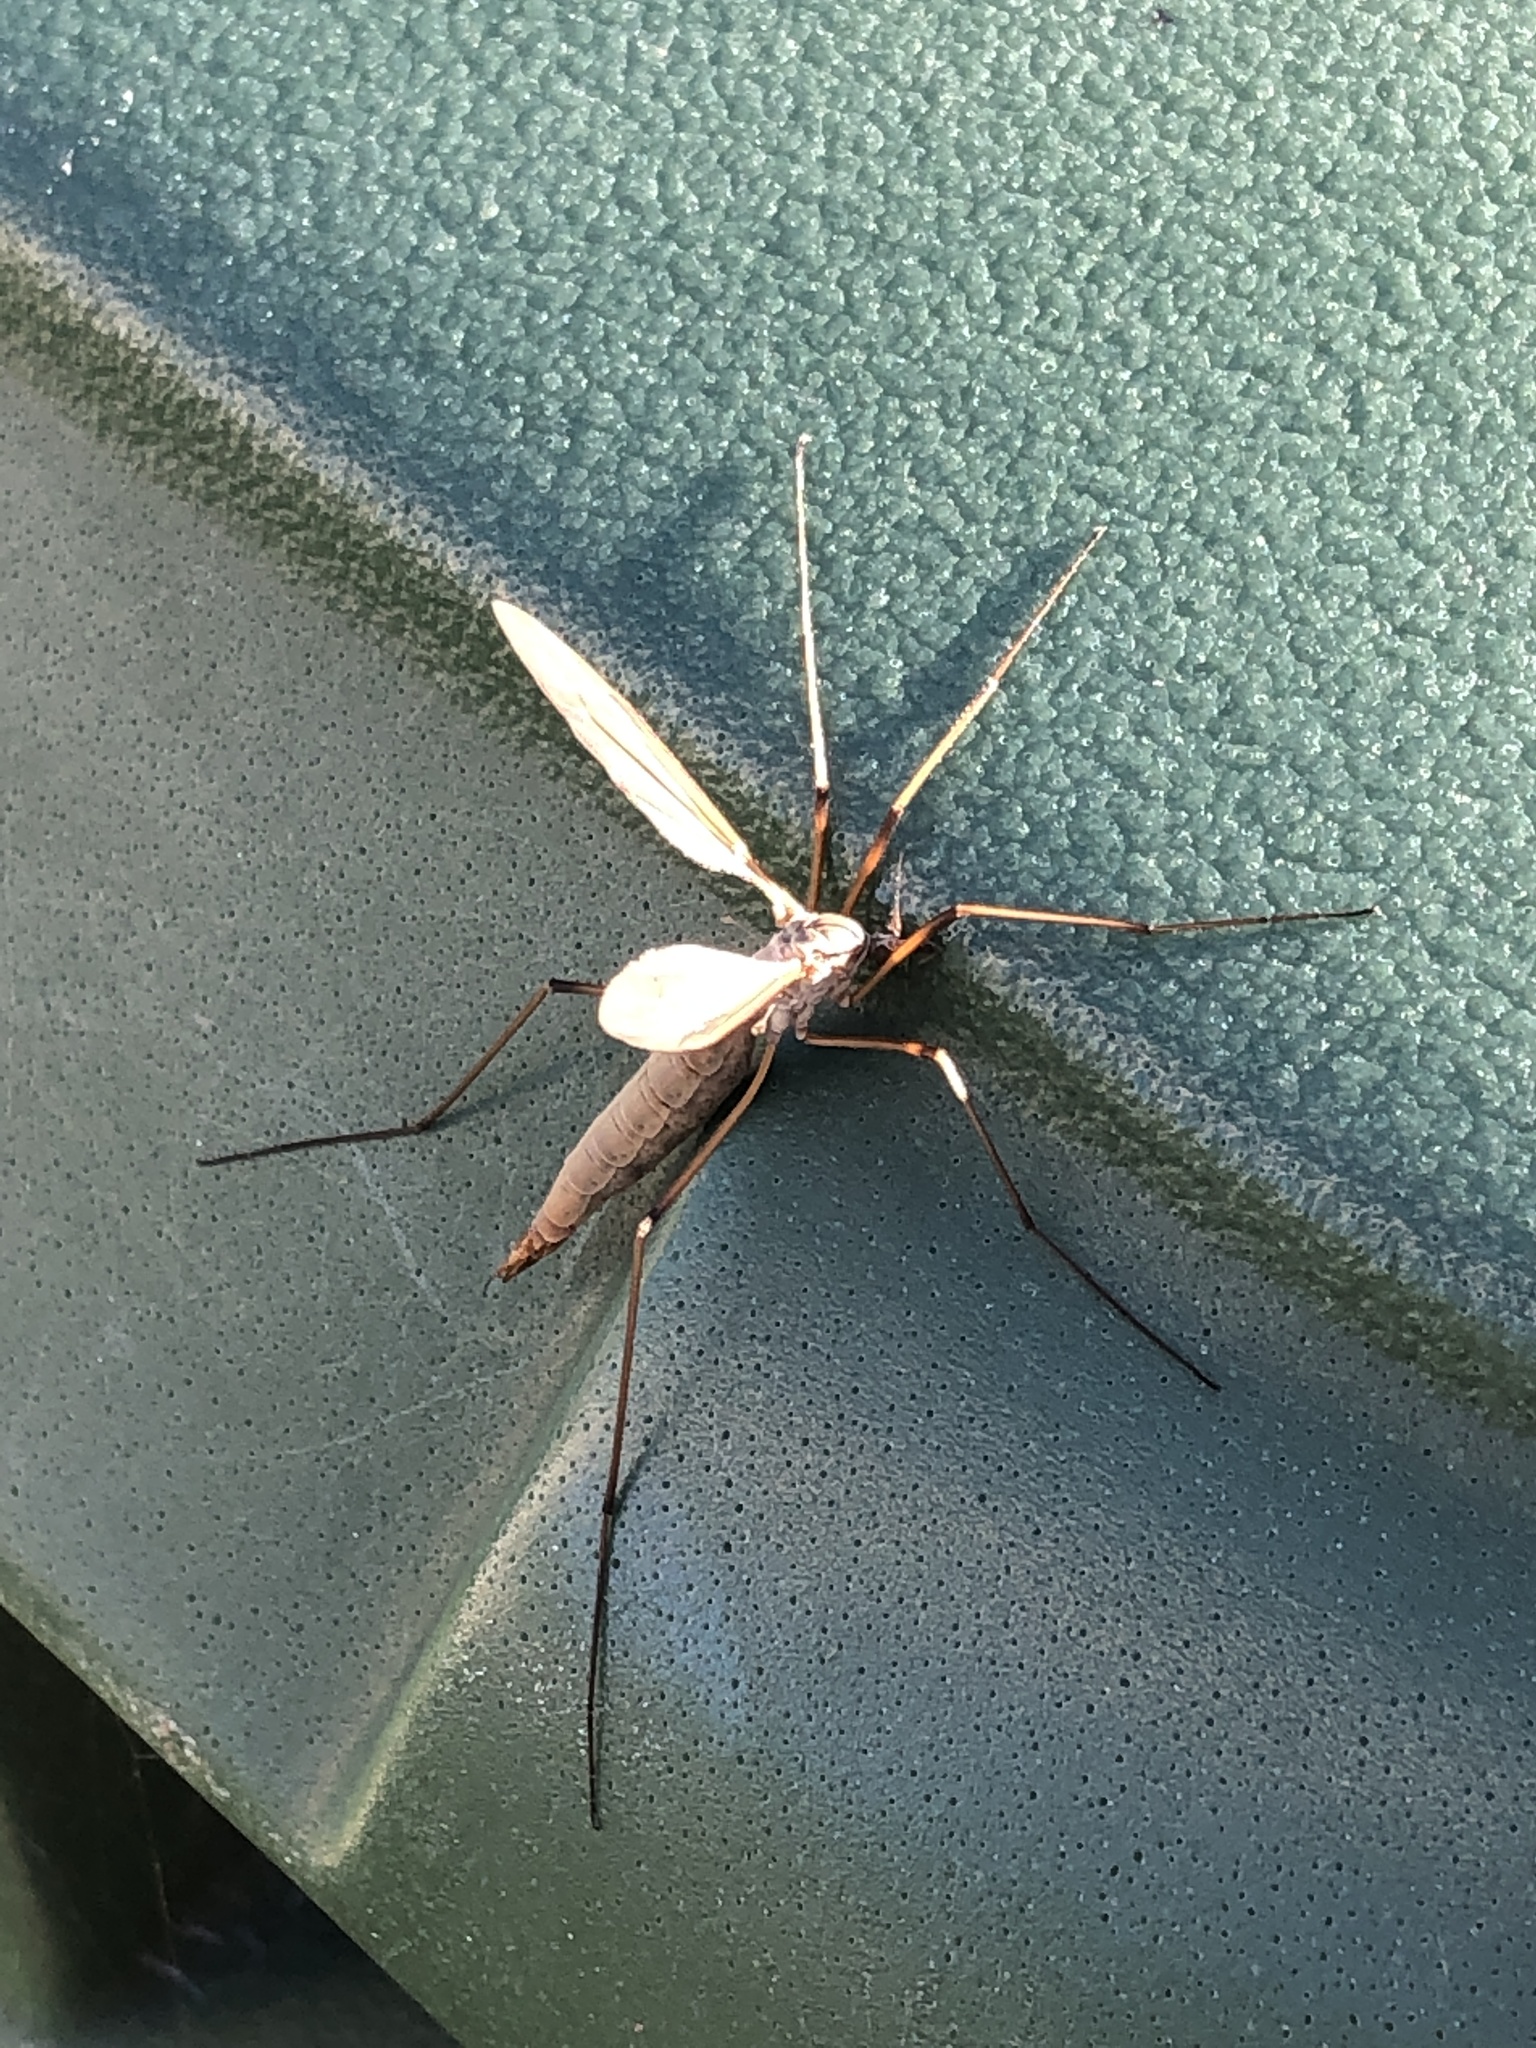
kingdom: Animalia
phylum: Arthropoda
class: Insecta
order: Diptera
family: Tipulidae
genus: Tipula
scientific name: Tipula paludosa
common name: European cranefly
